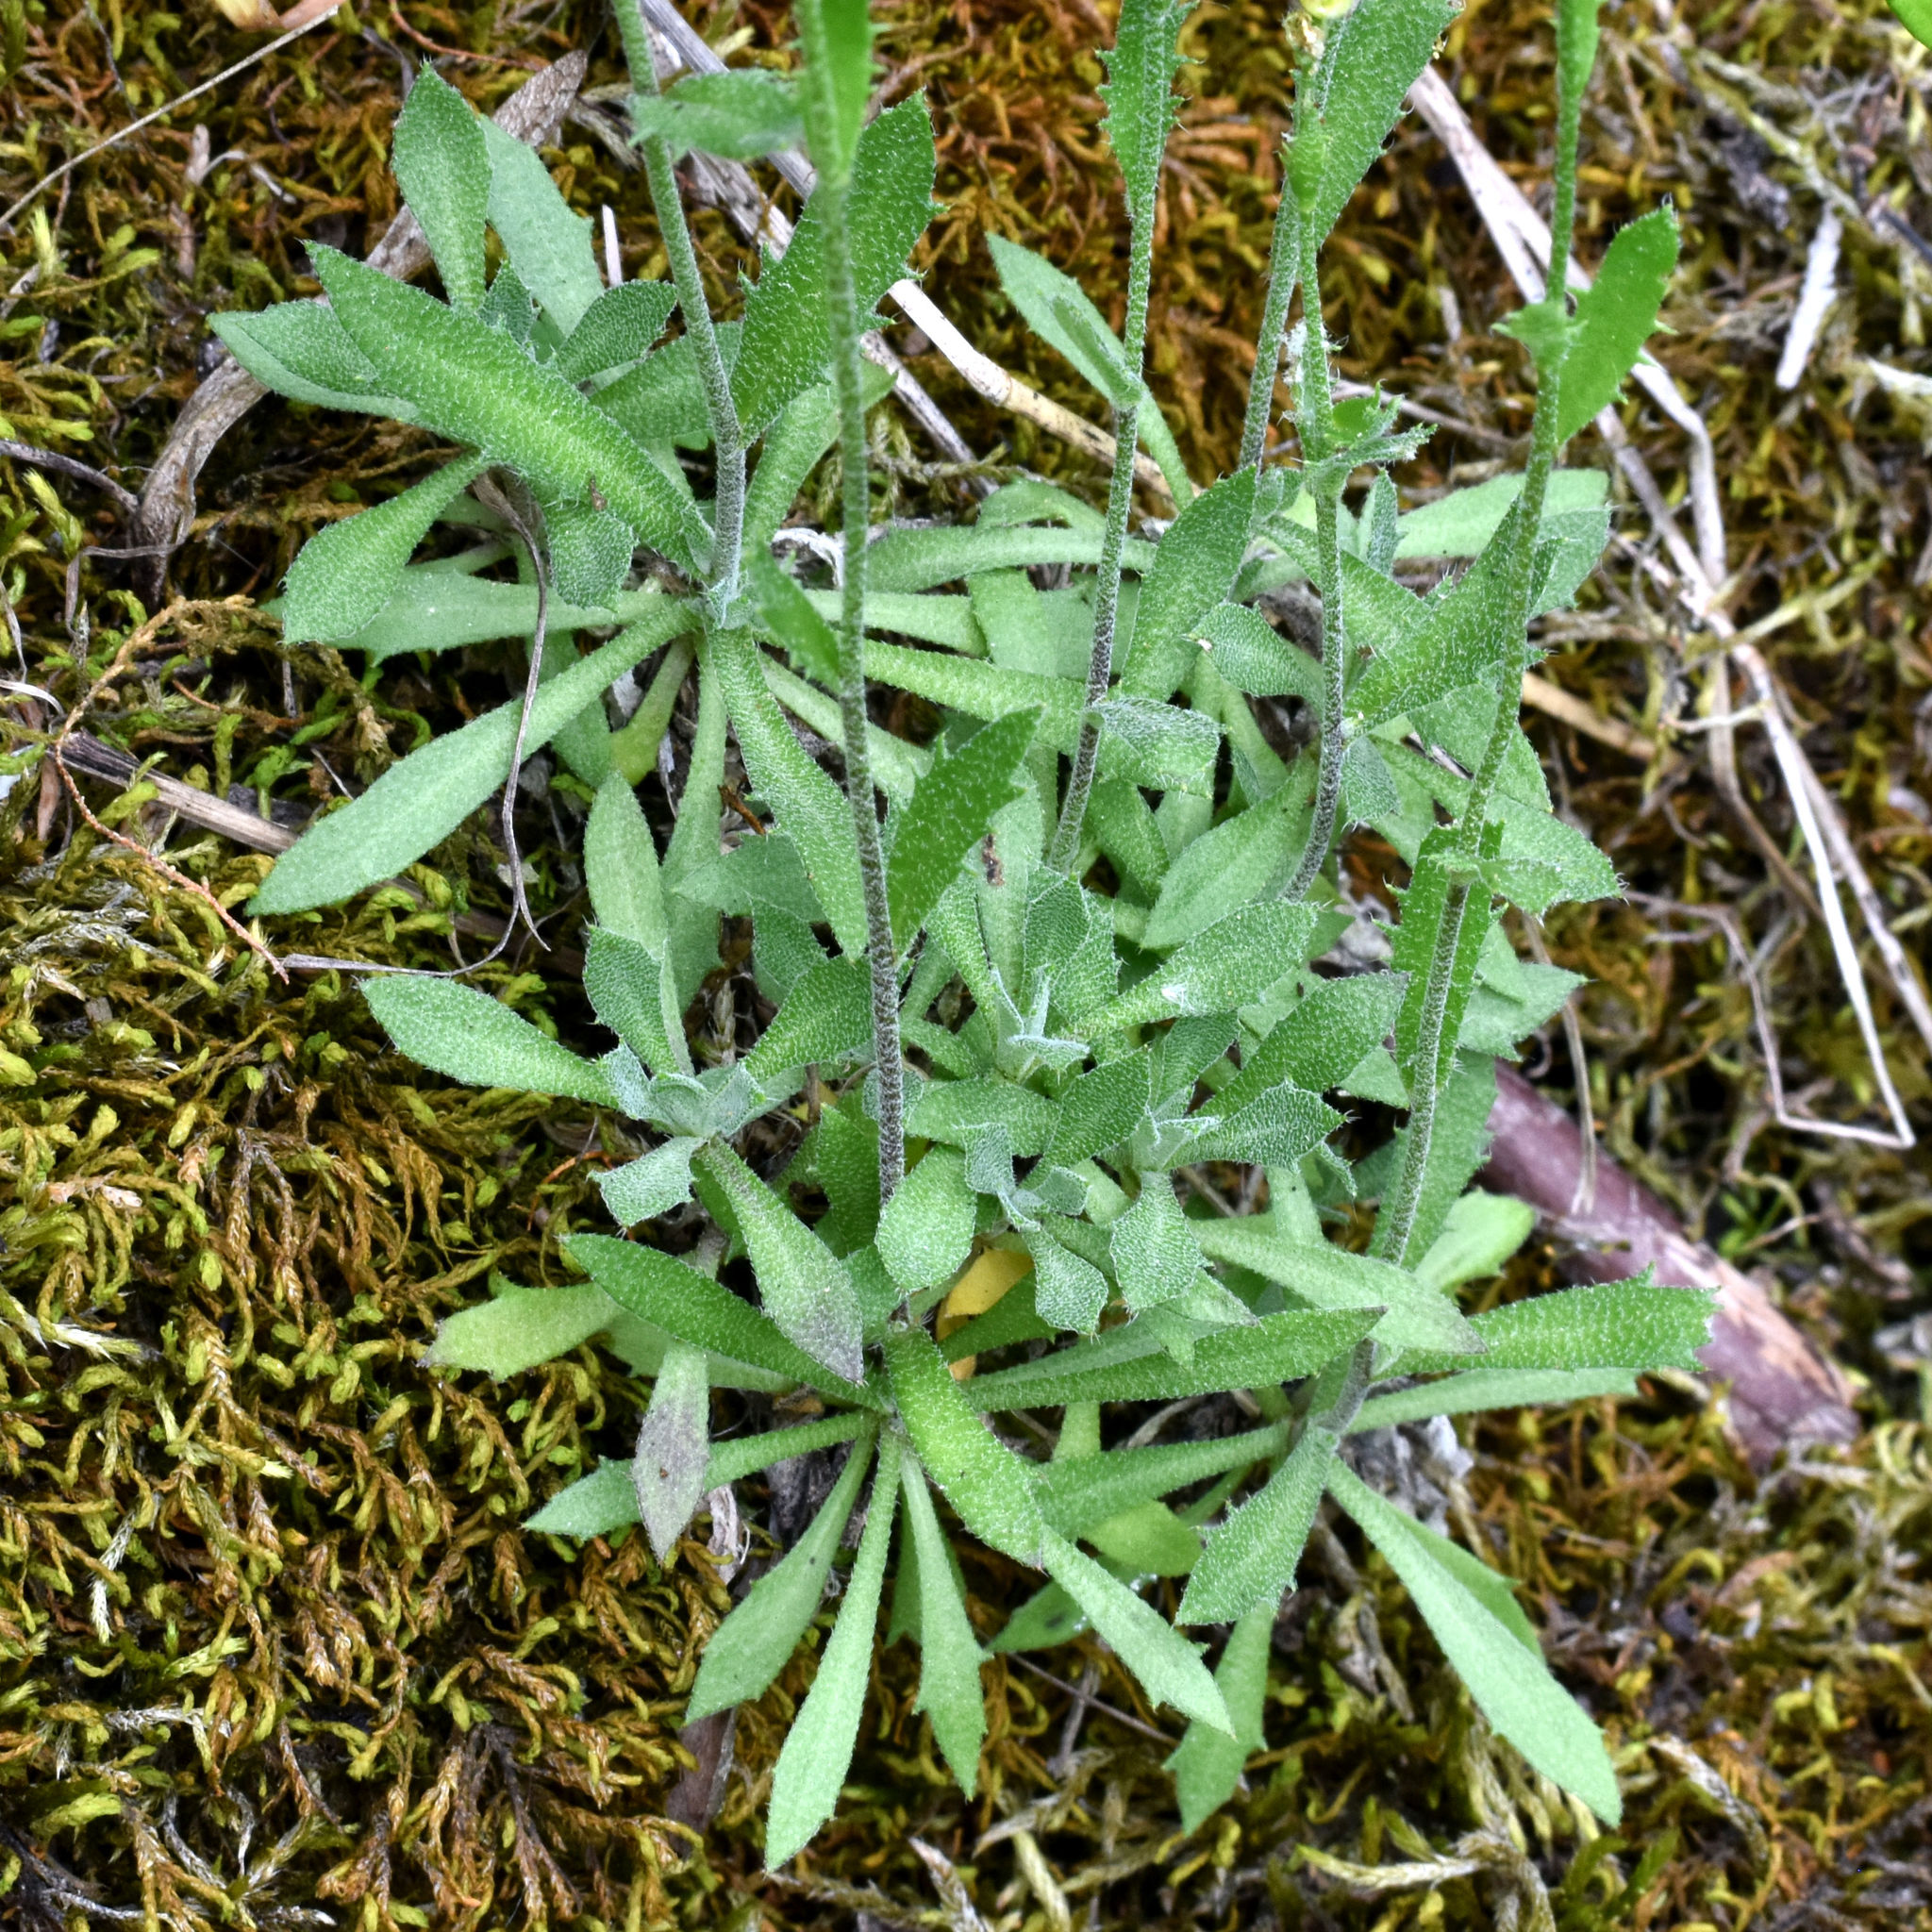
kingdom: Plantae
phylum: Tracheophyta
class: Magnoliopsida
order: Brassicales
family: Brassicaceae
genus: Draba
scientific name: Draba arabisans
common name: Rock draba
